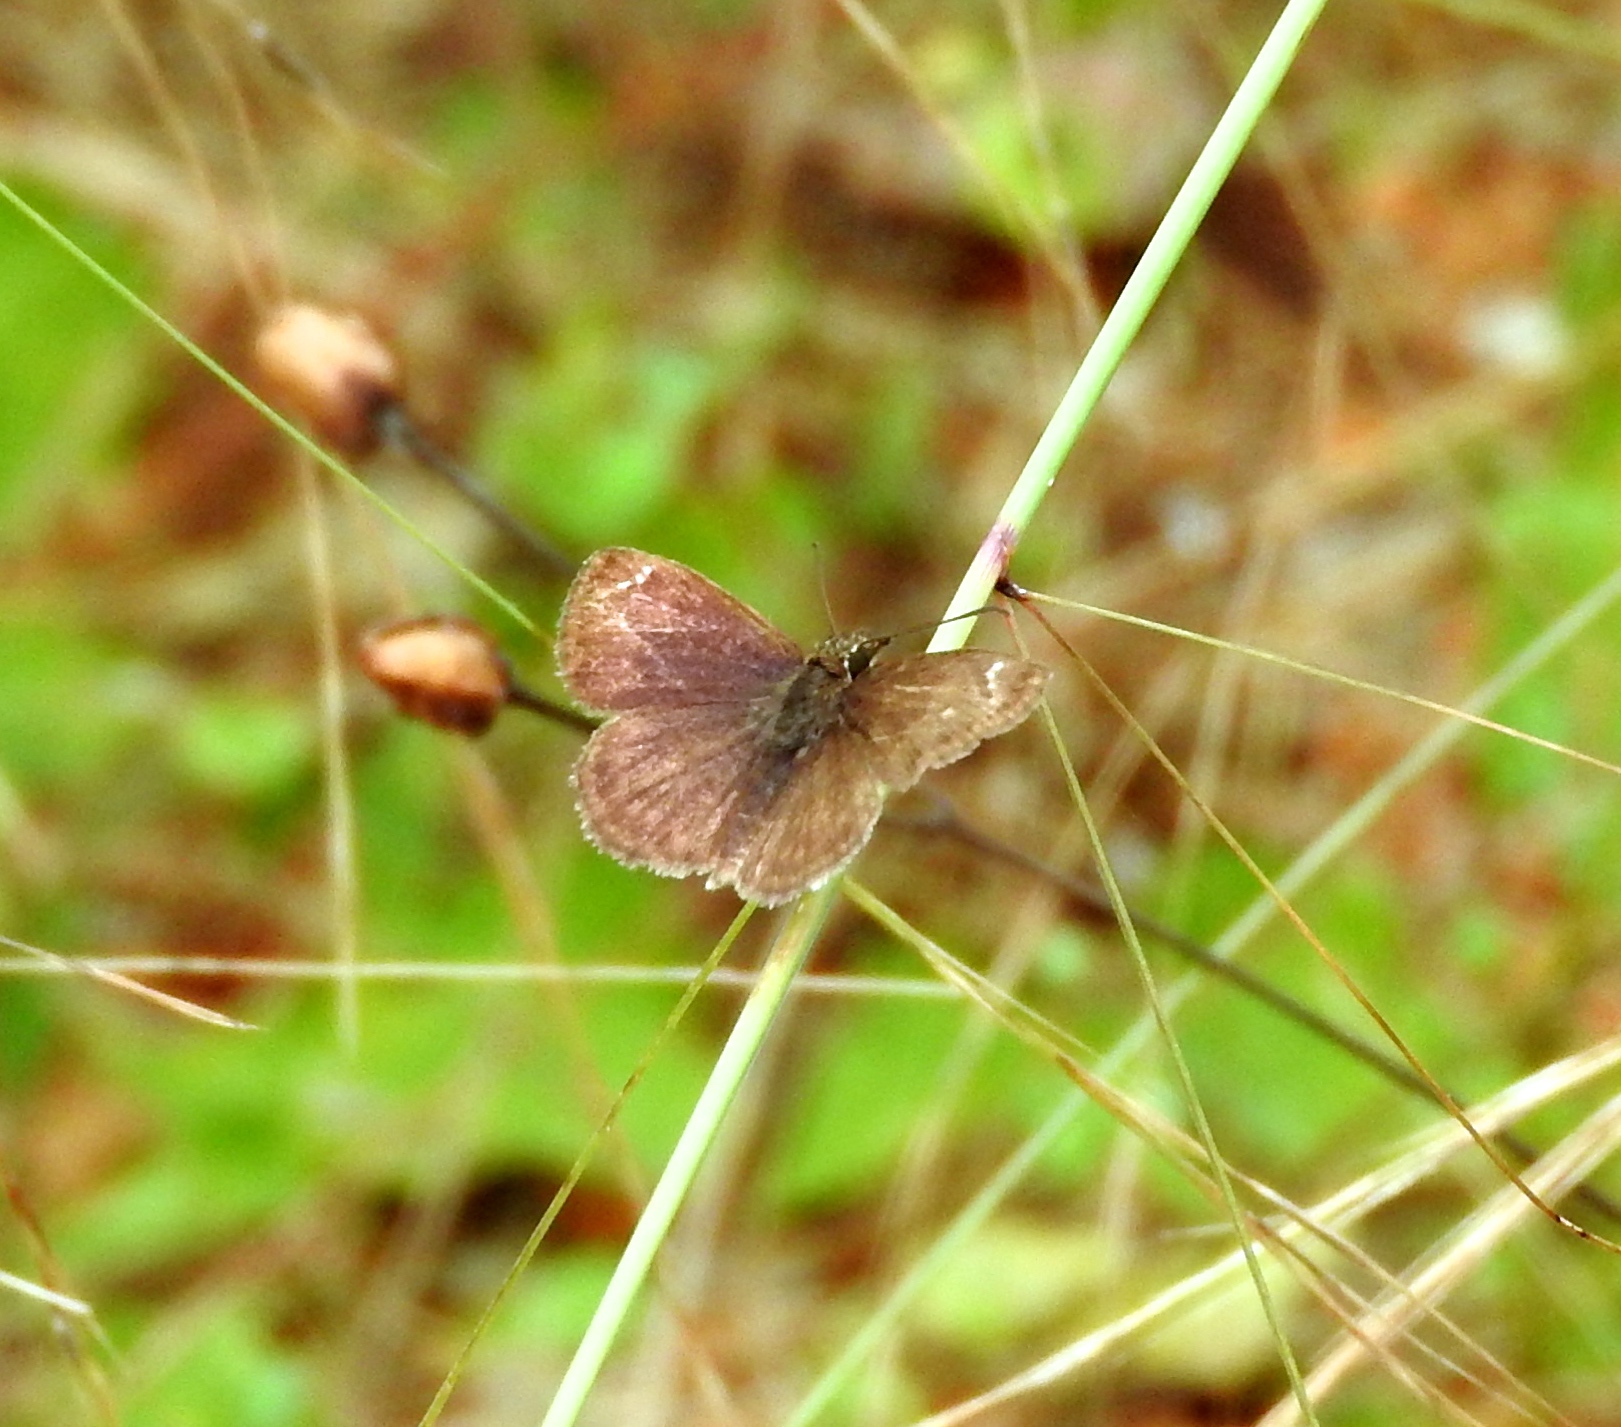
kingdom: Animalia
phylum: Arthropoda
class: Insecta
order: Lepidoptera
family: Hesperiidae
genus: Zopyrion
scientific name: Zopyrion sandace
